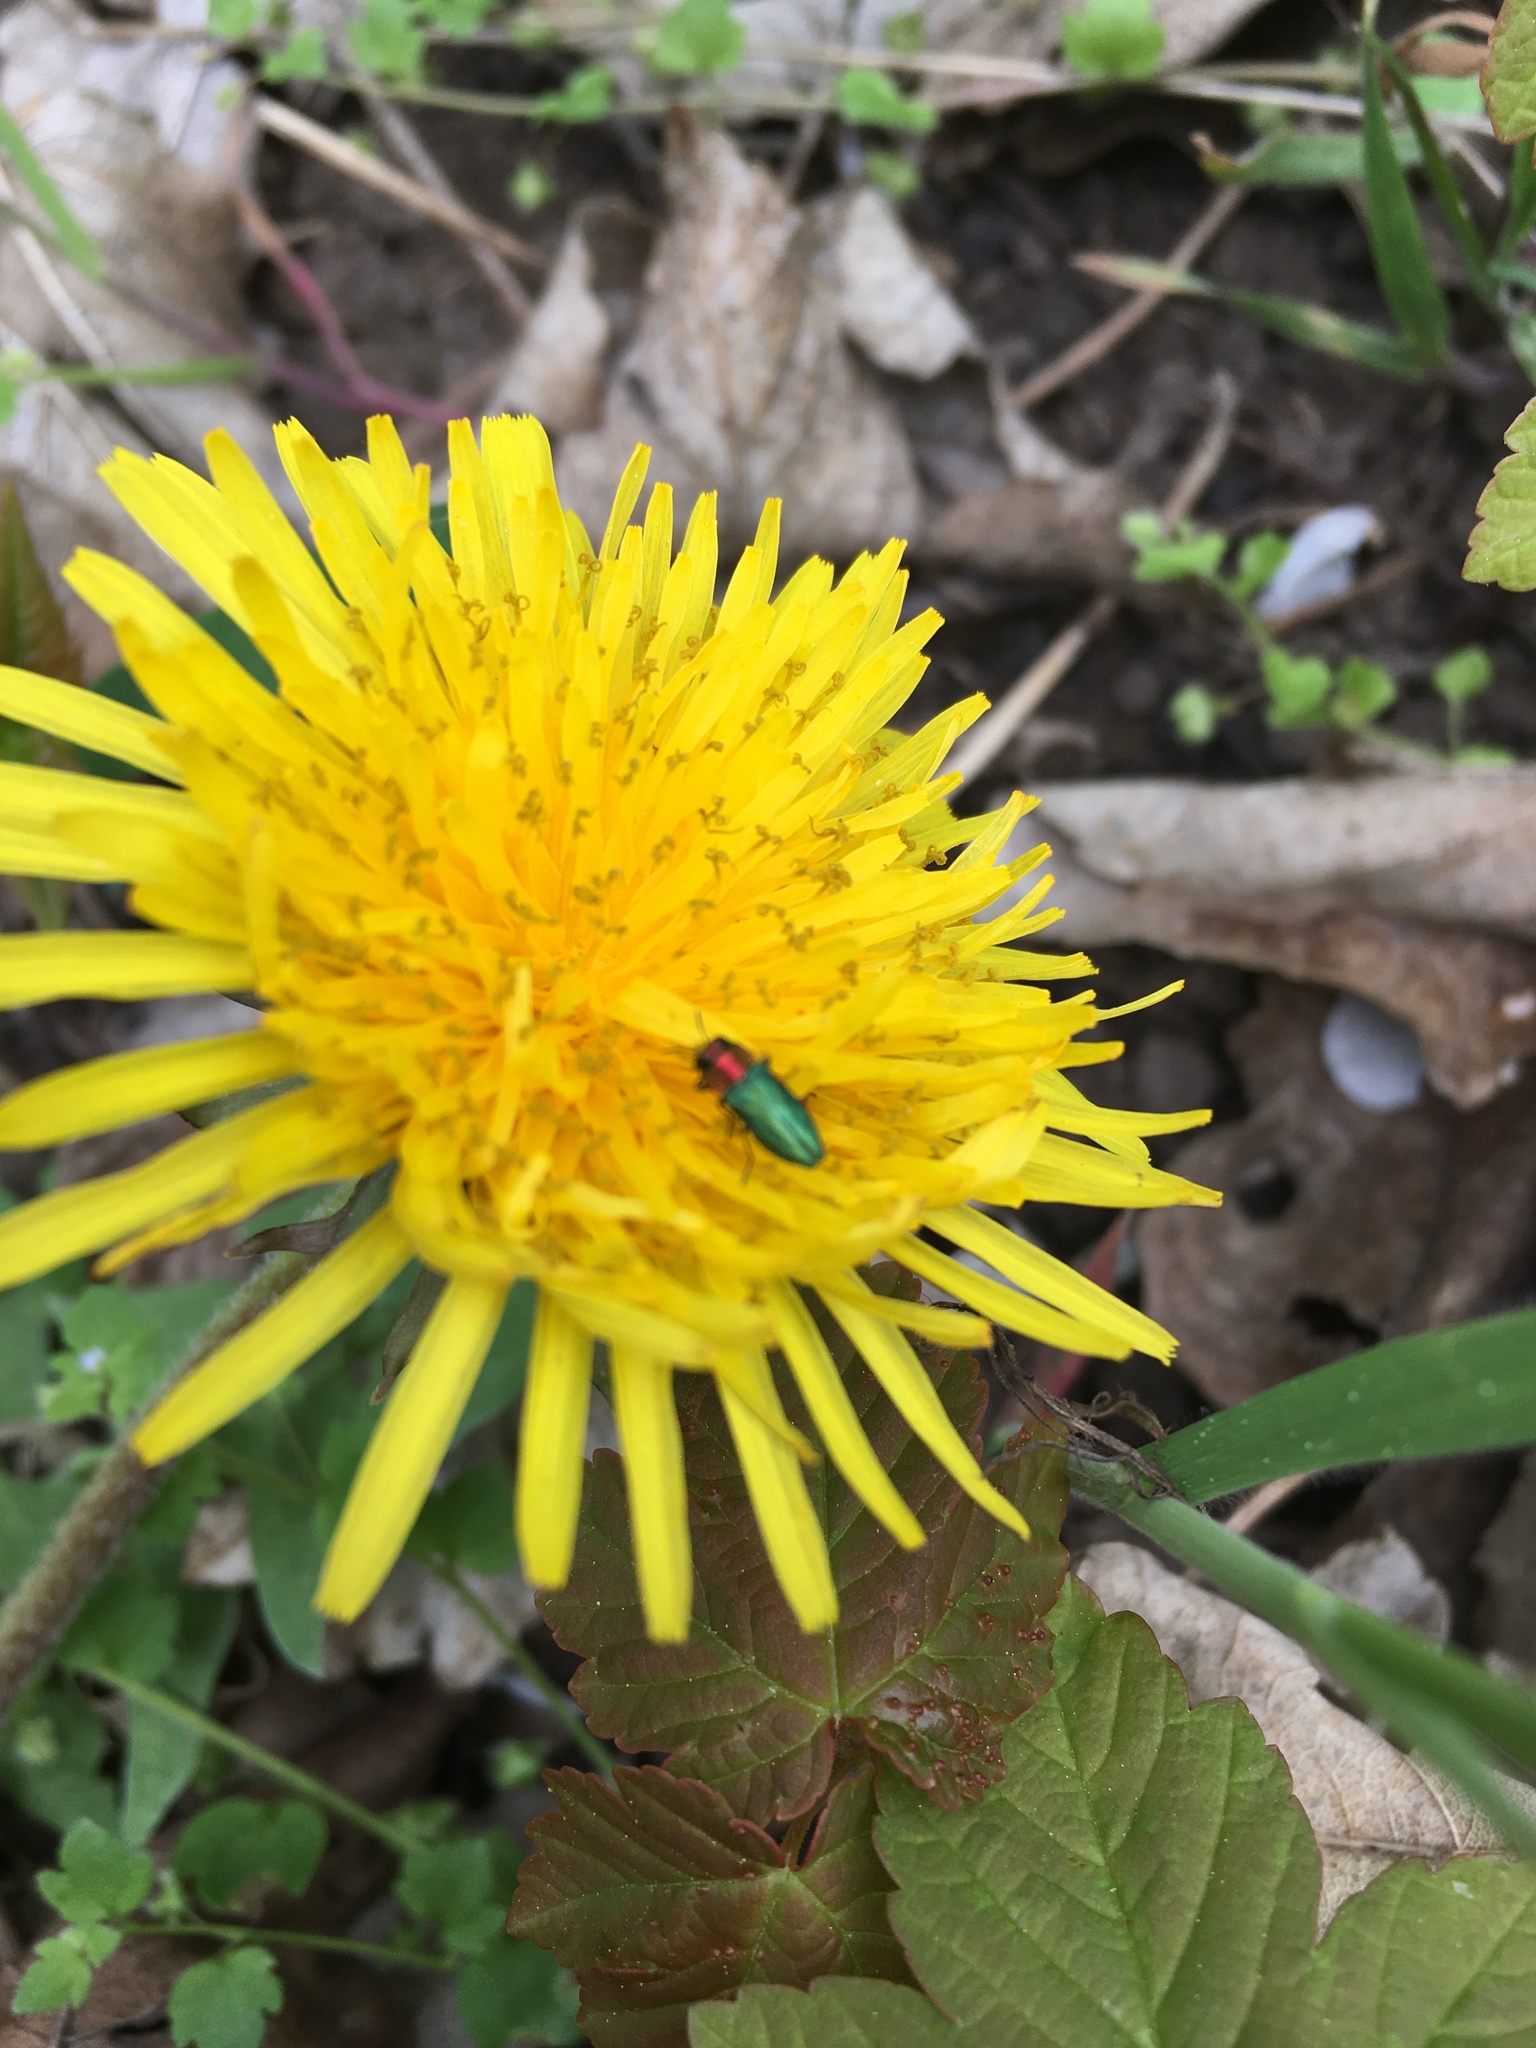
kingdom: Animalia
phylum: Arthropoda
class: Insecta
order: Coleoptera
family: Buprestidae
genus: Anthaxia
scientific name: Anthaxia nitidula
